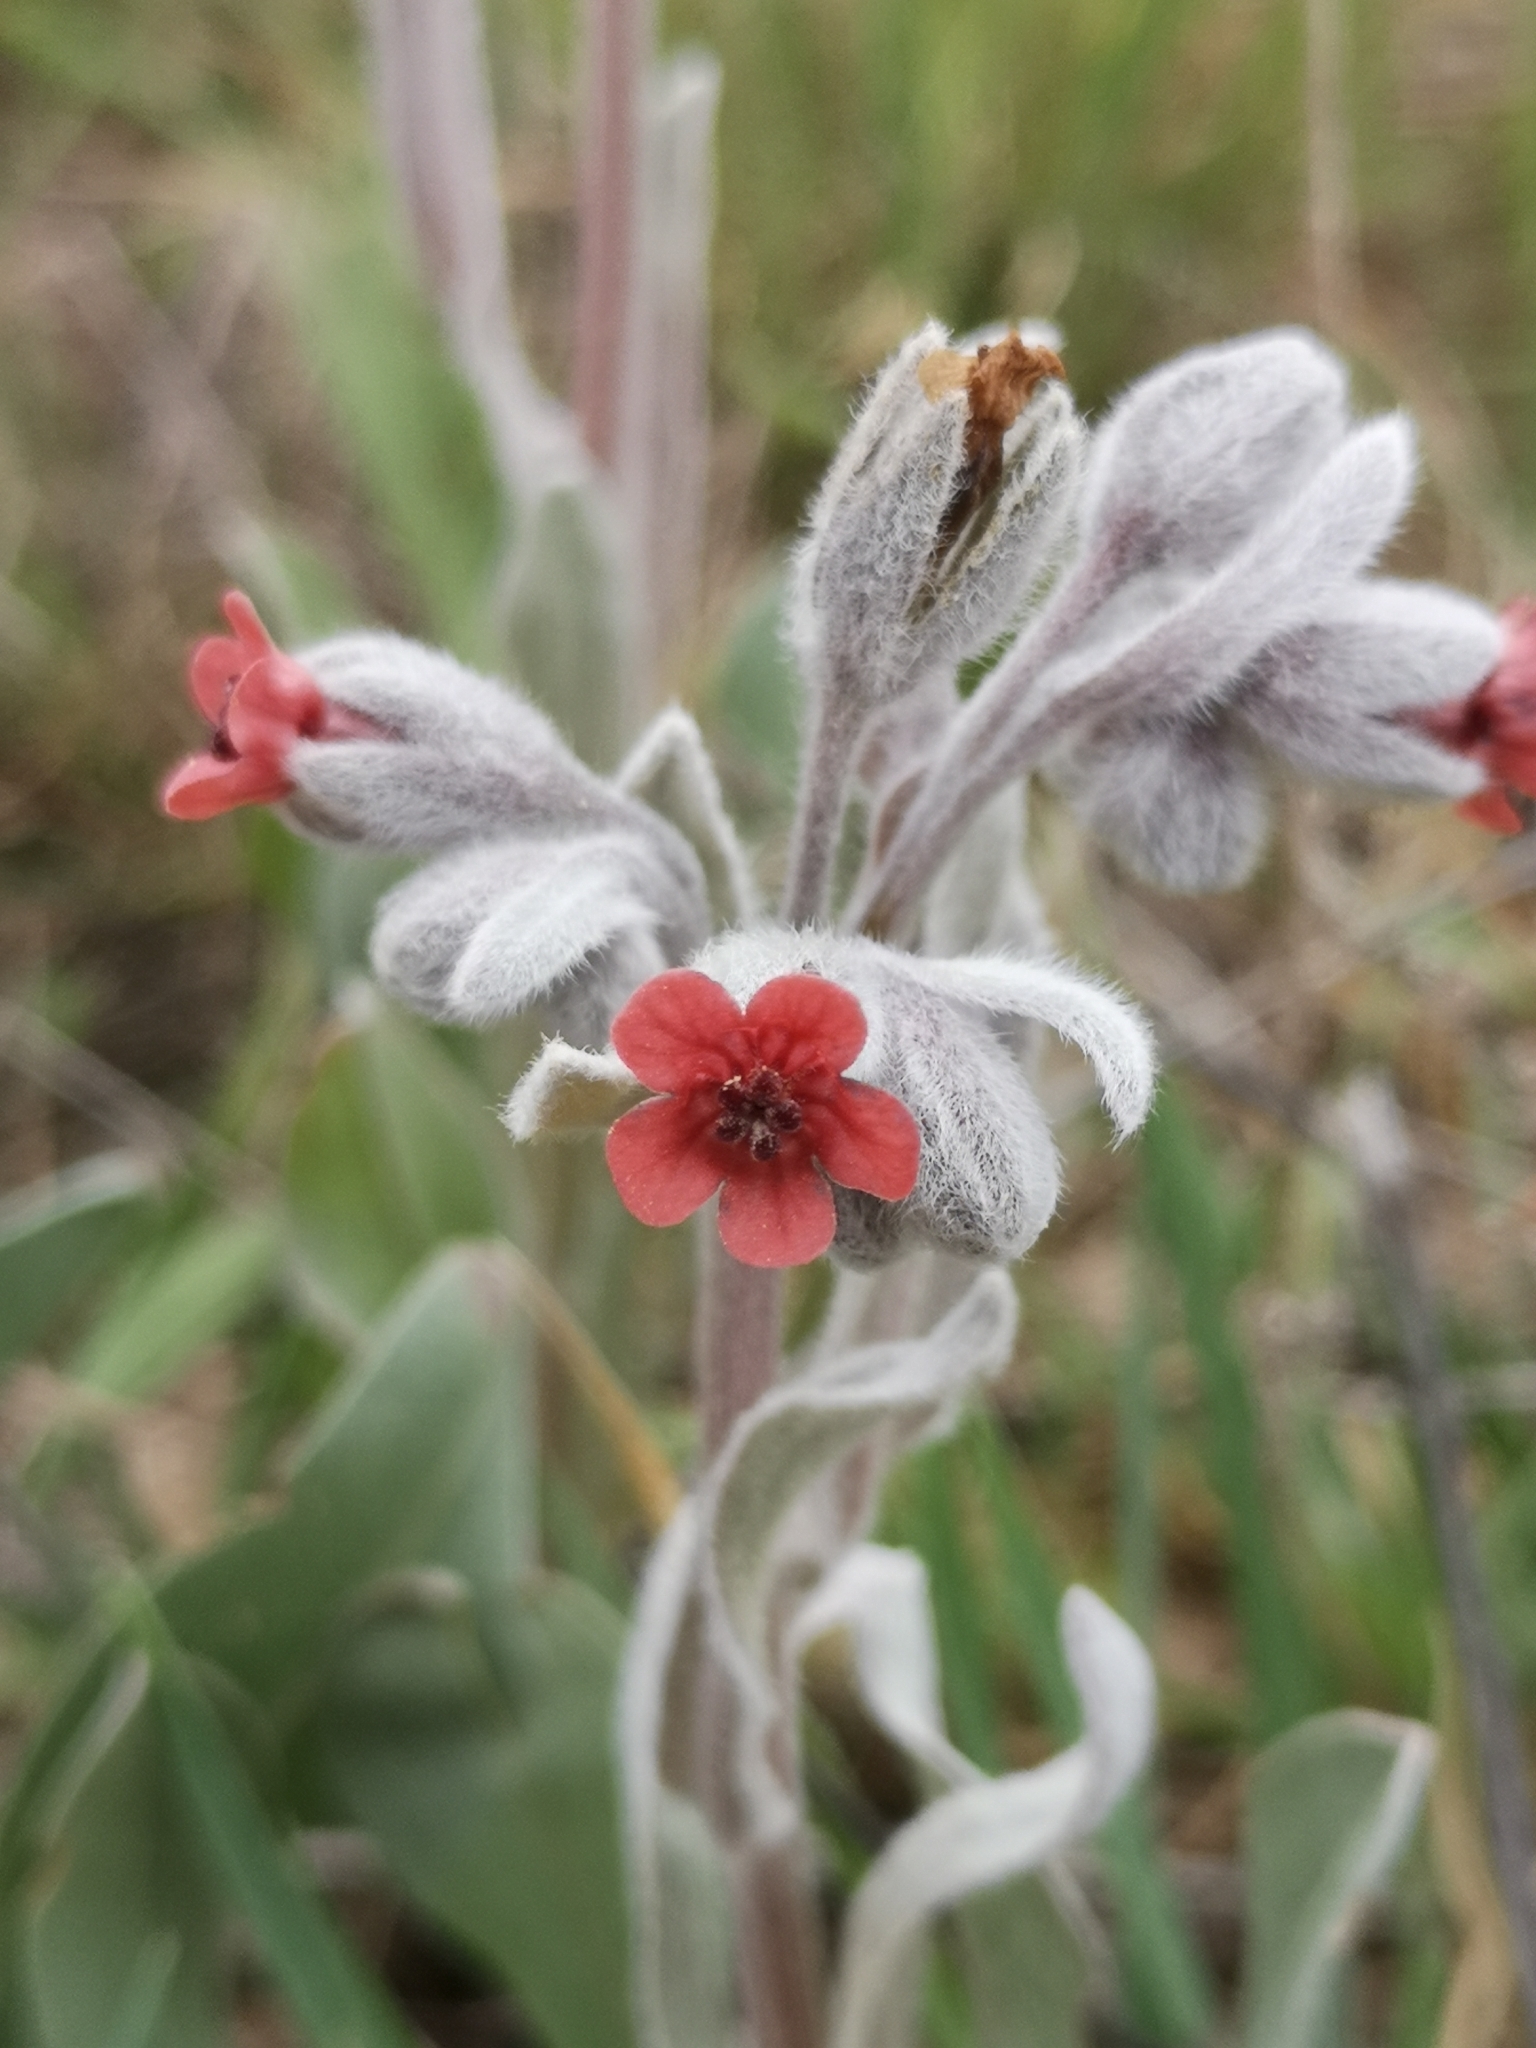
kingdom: Plantae
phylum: Tracheophyta
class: Magnoliopsida
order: Boraginales
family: Boraginaceae
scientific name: Boraginaceae
